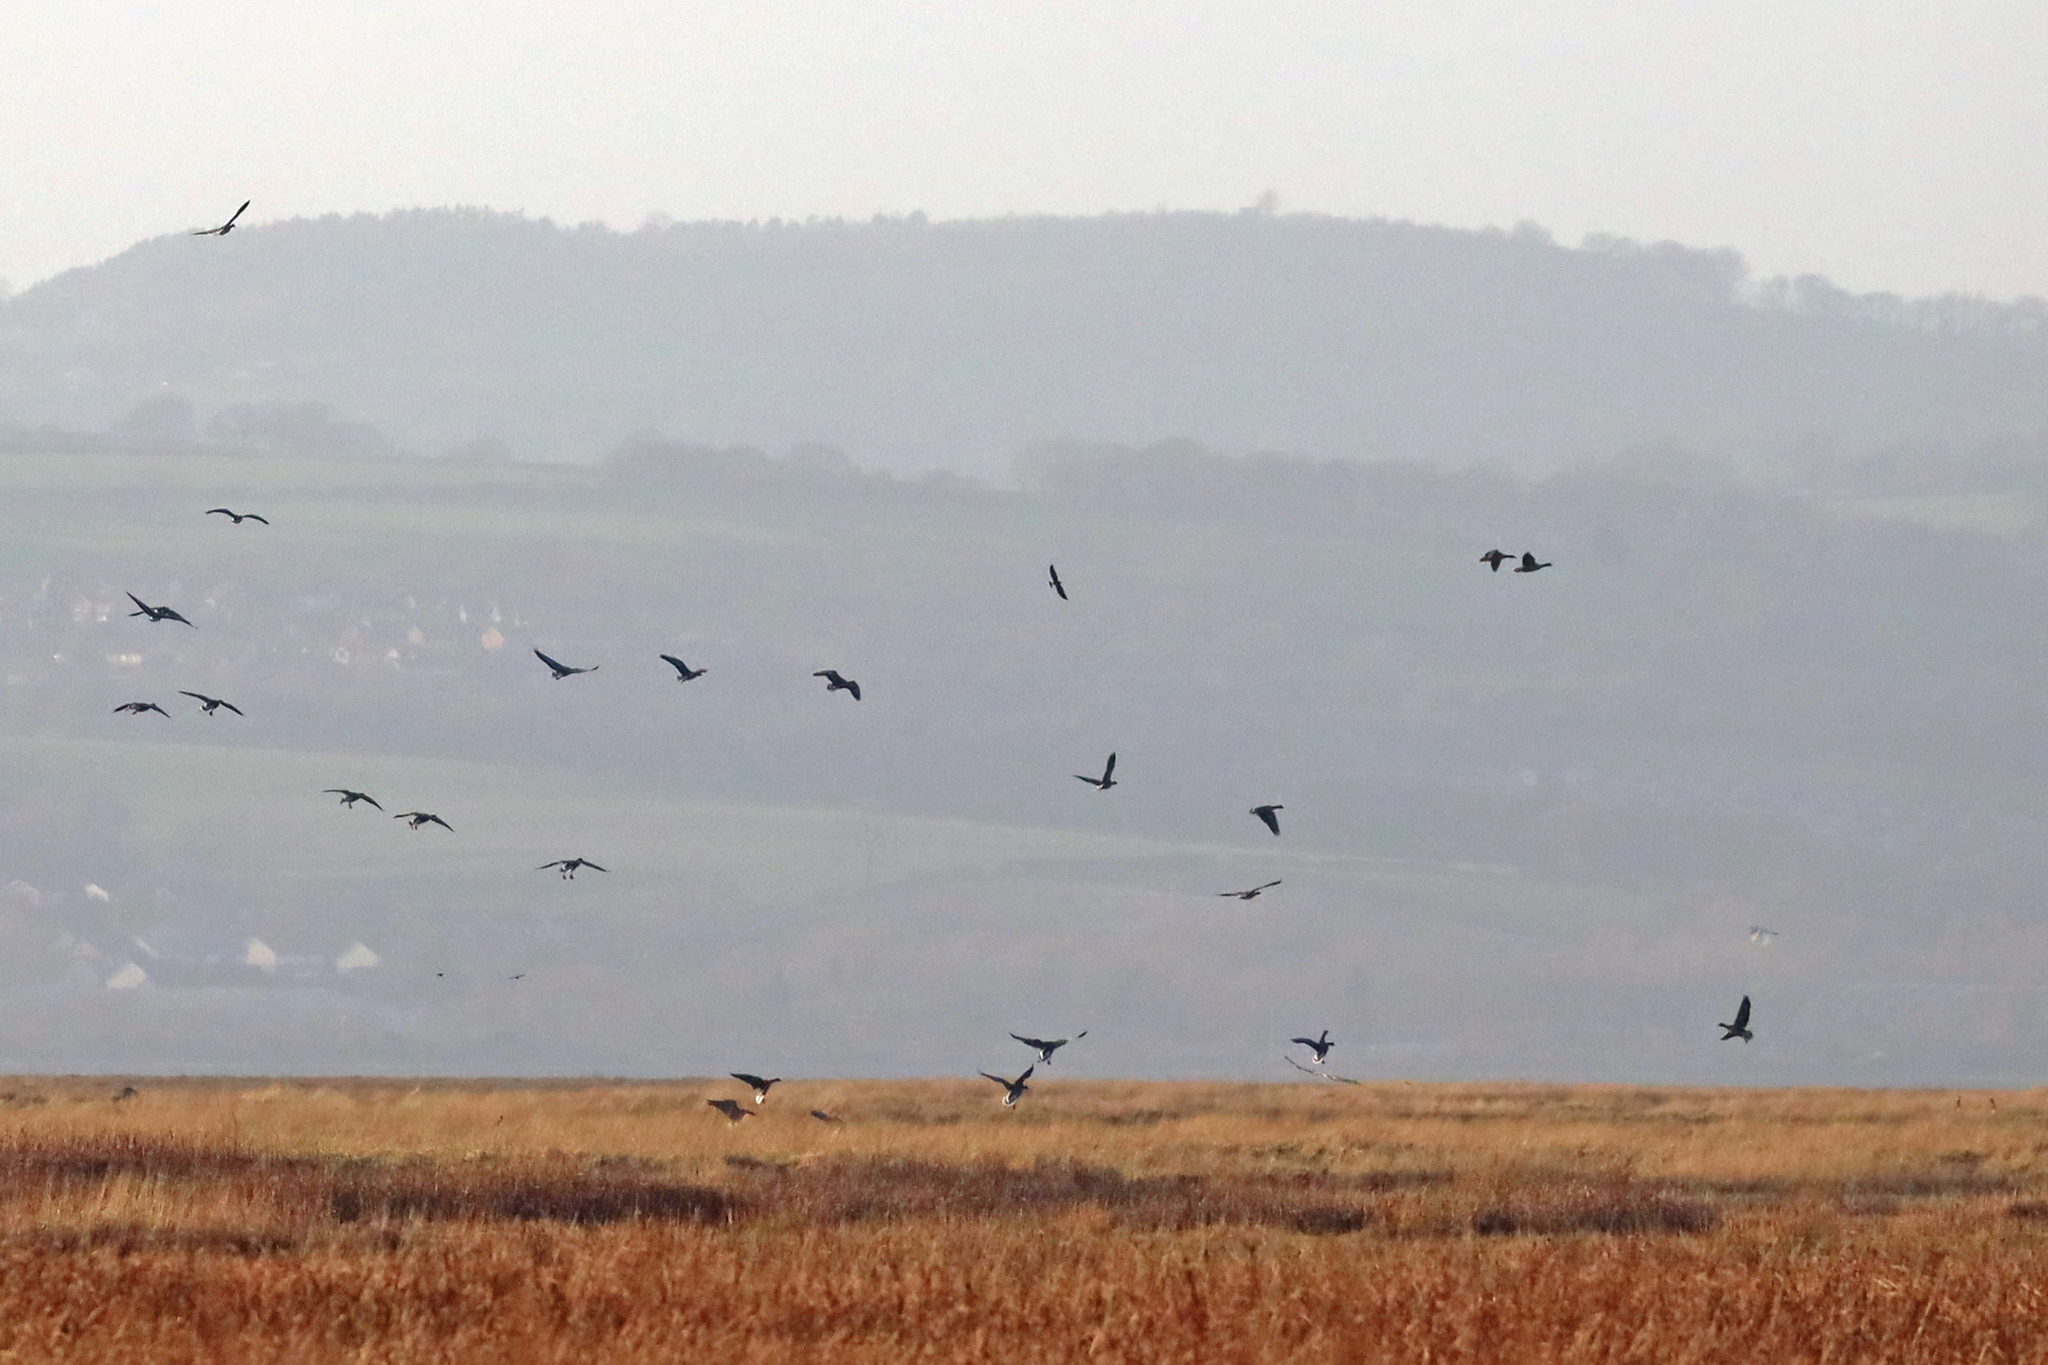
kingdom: Animalia
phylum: Chordata
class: Aves
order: Anseriformes
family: Anatidae
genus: Anser
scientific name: Anser brachyrhynchus
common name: Pink-footed goose
